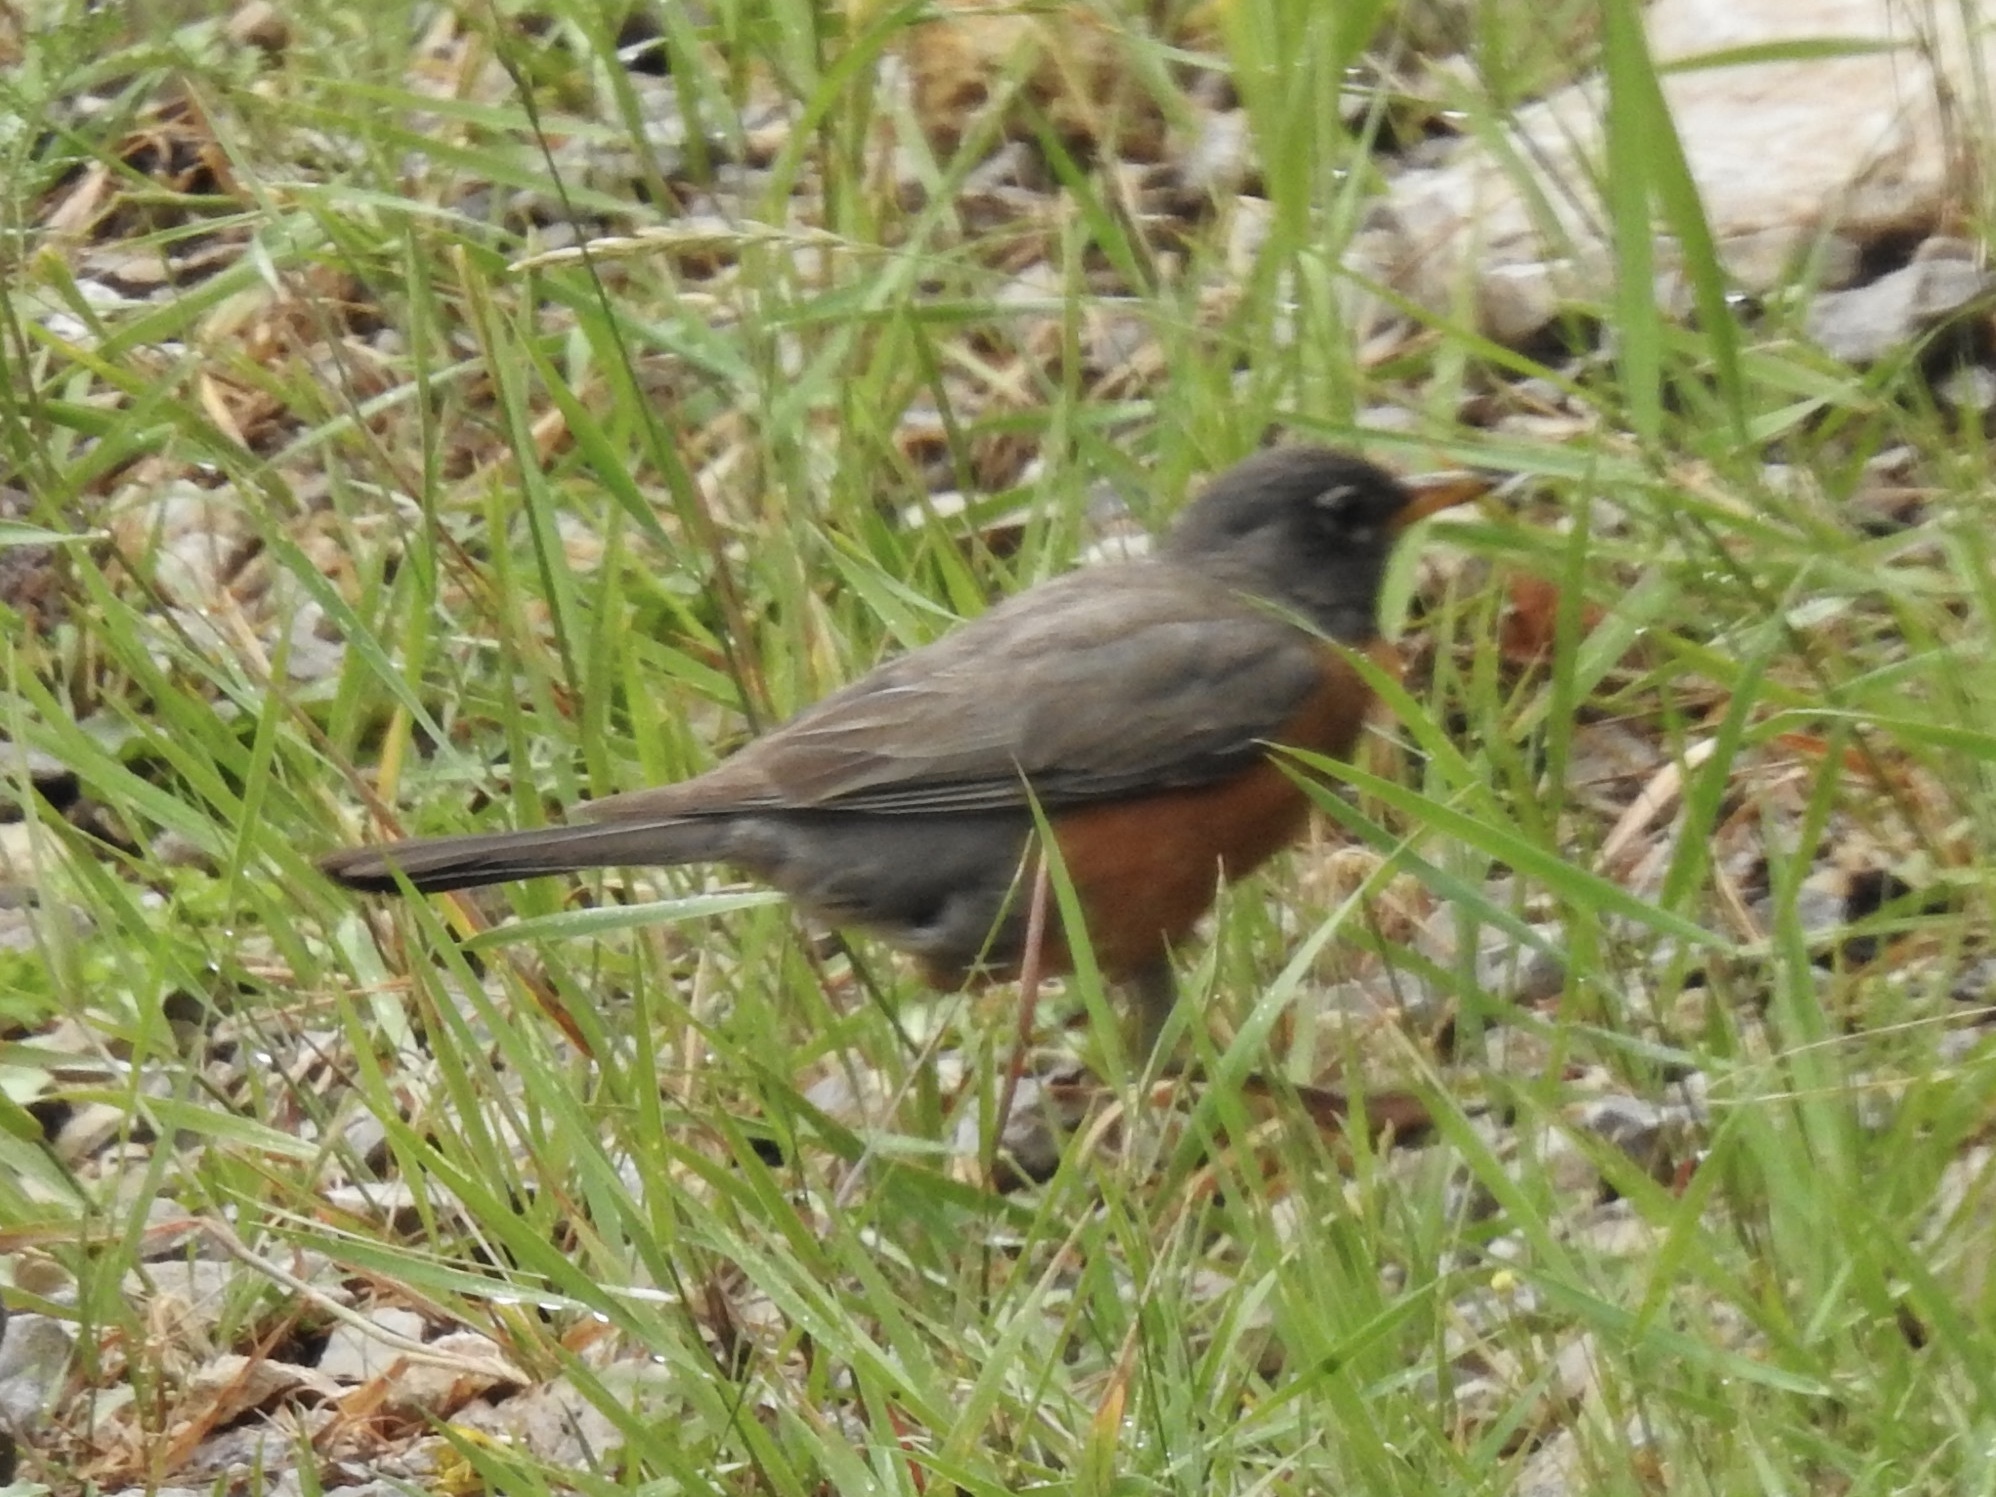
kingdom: Animalia
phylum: Chordata
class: Aves
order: Passeriformes
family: Turdidae
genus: Turdus
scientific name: Turdus migratorius
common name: American robin
